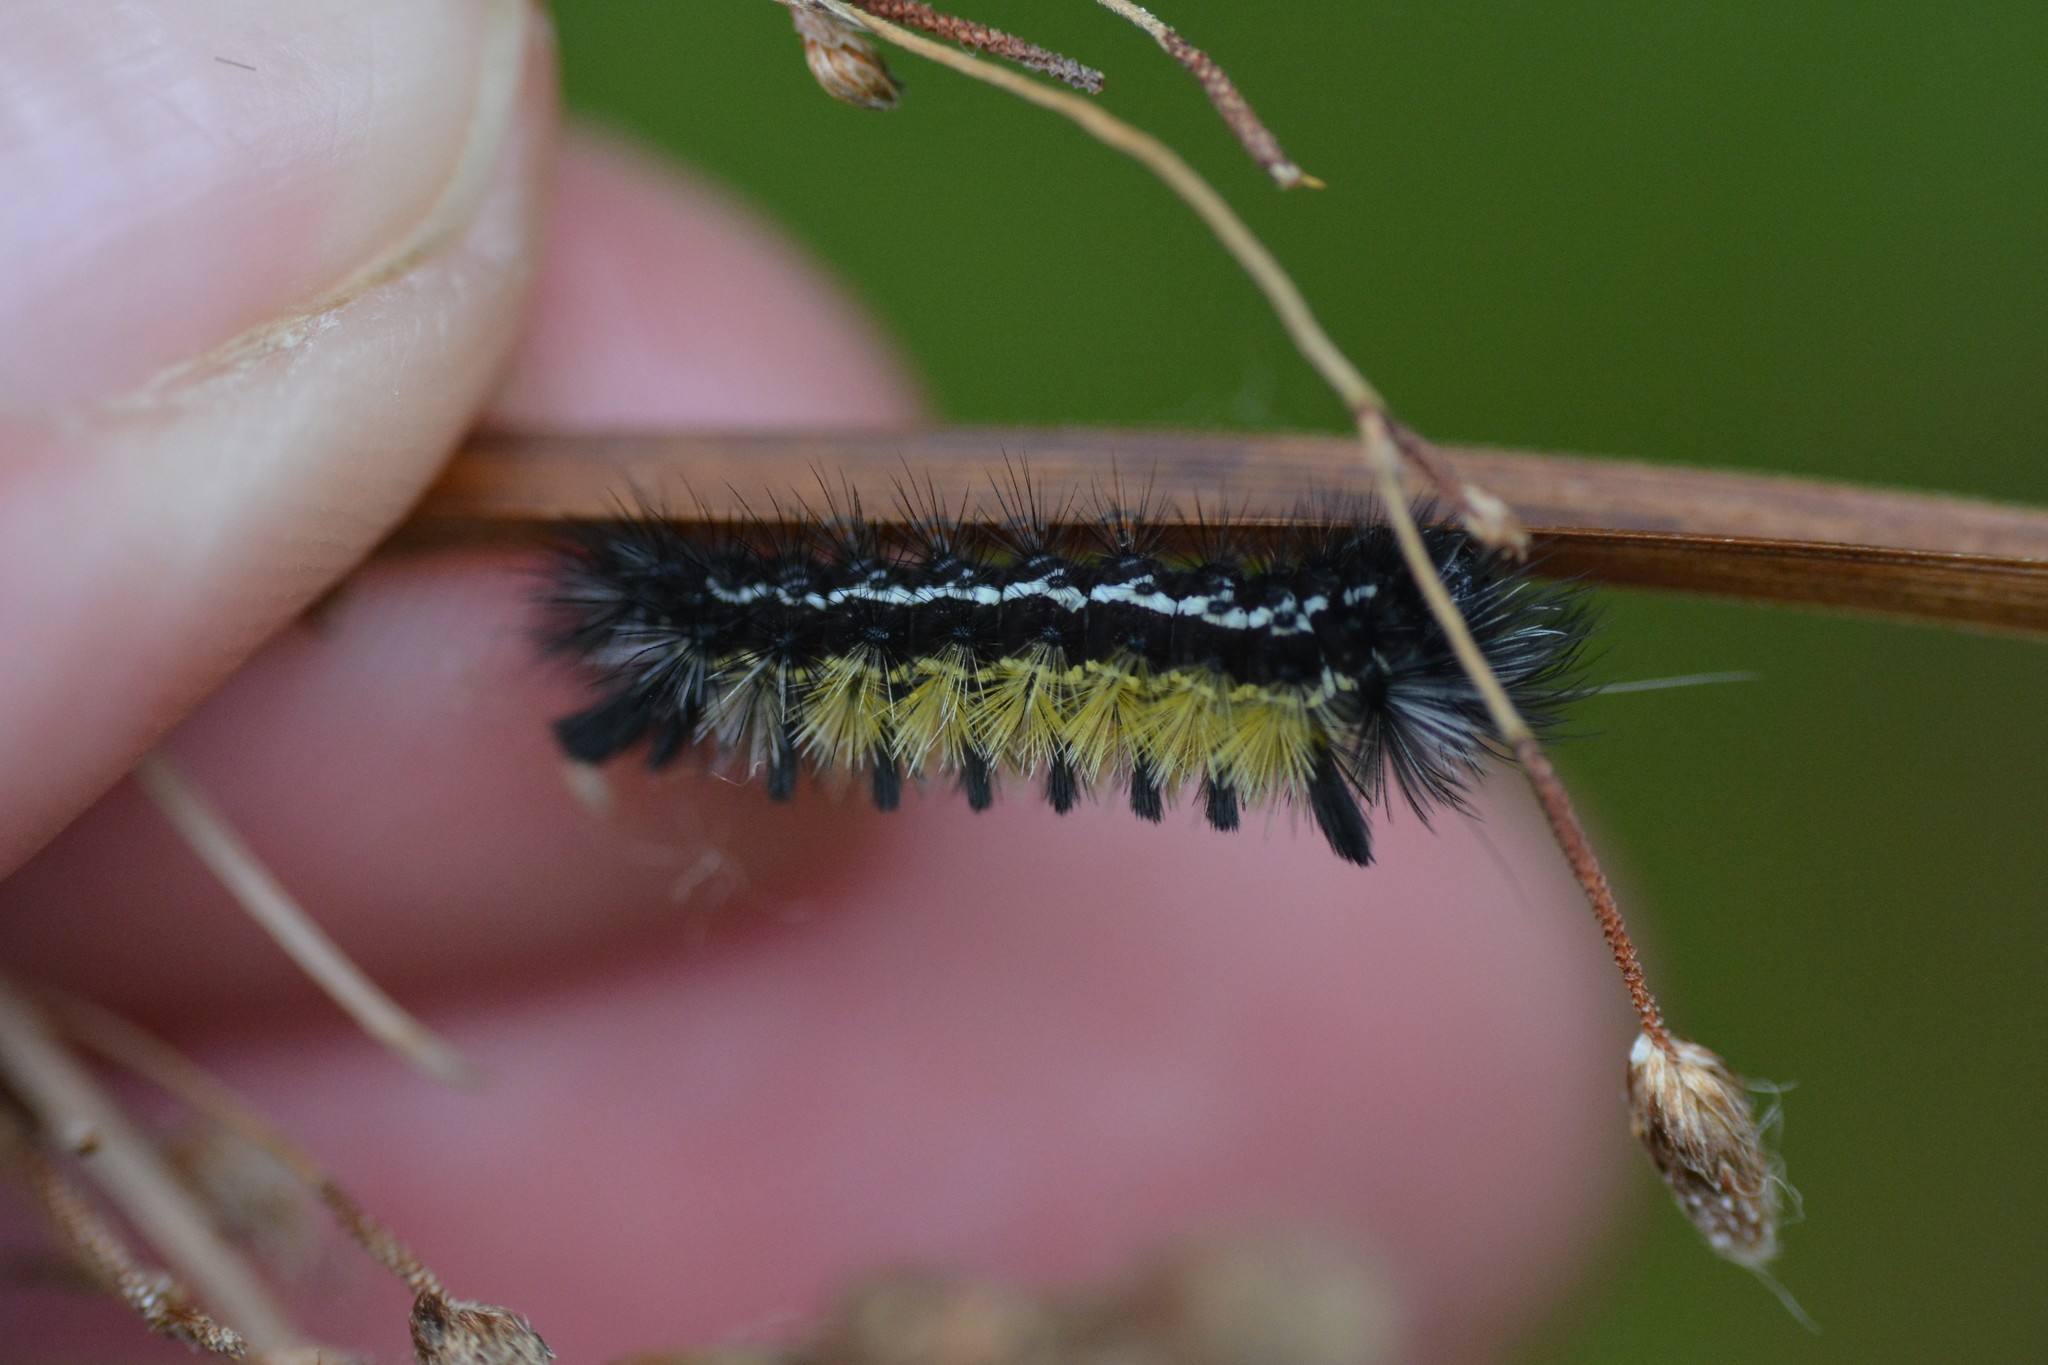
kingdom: Animalia
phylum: Arthropoda
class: Insecta
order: Lepidoptera
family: Erebidae
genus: Ctenucha
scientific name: Ctenucha virginica
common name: Virginia ctenucha moth
